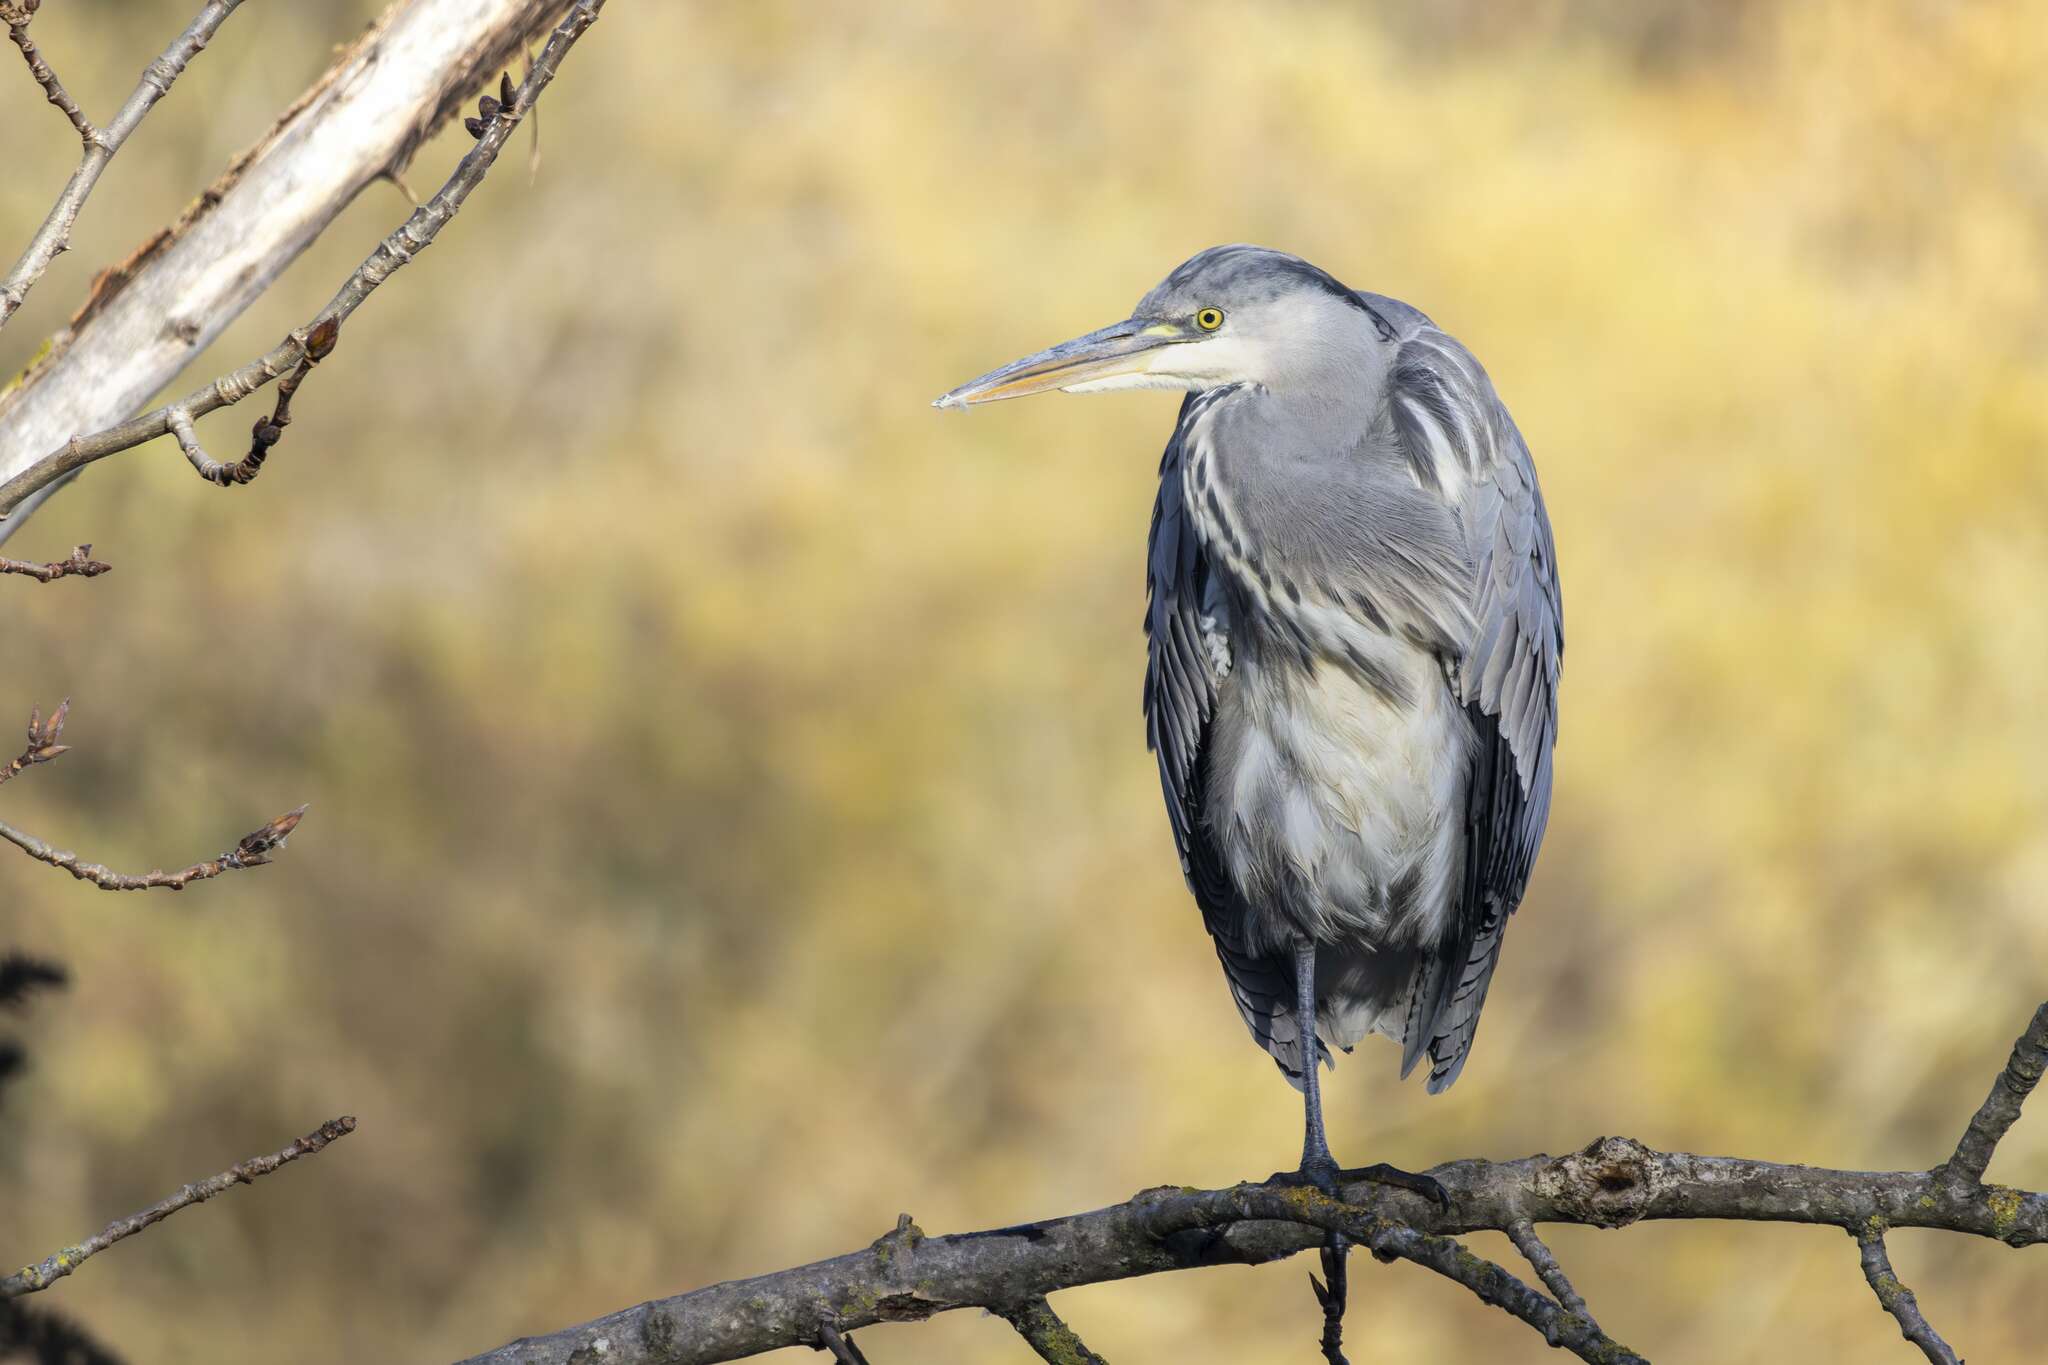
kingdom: Animalia
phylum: Chordata
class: Aves
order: Pelecaniformes
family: Ardeidae
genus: Ardea
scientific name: Ardea cinerea
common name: Grey heron
